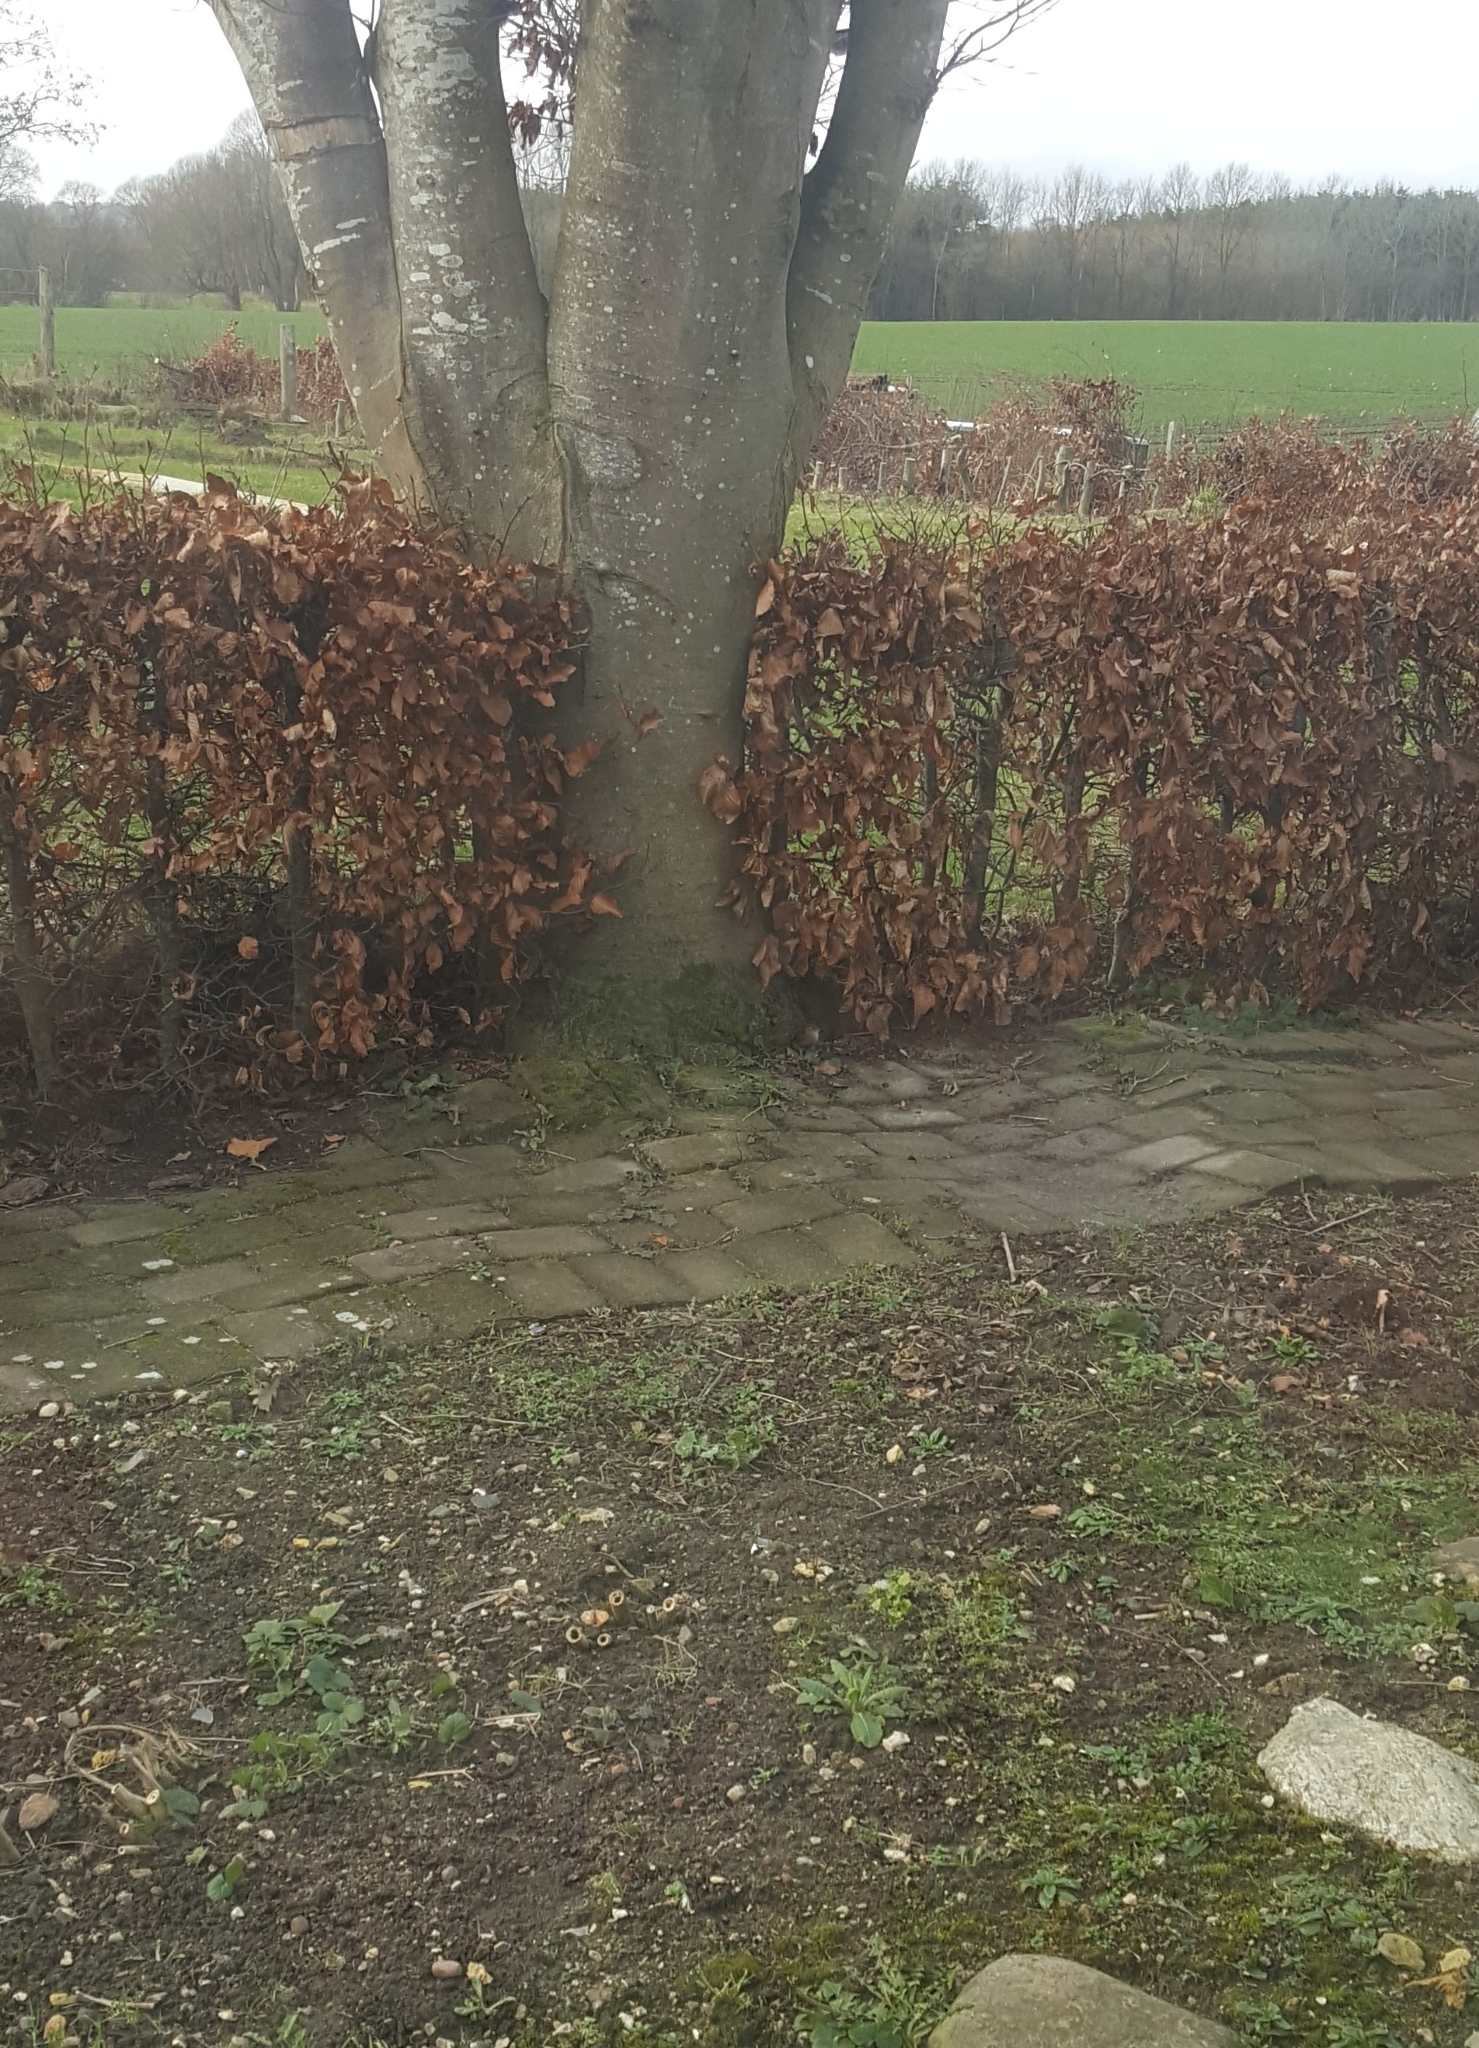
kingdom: Animalia
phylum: Chordata
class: Aves
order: Passeriformes
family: Troglodytidae
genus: Troglodytes
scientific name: Troglodytes troglodytes
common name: Eurasian wren
